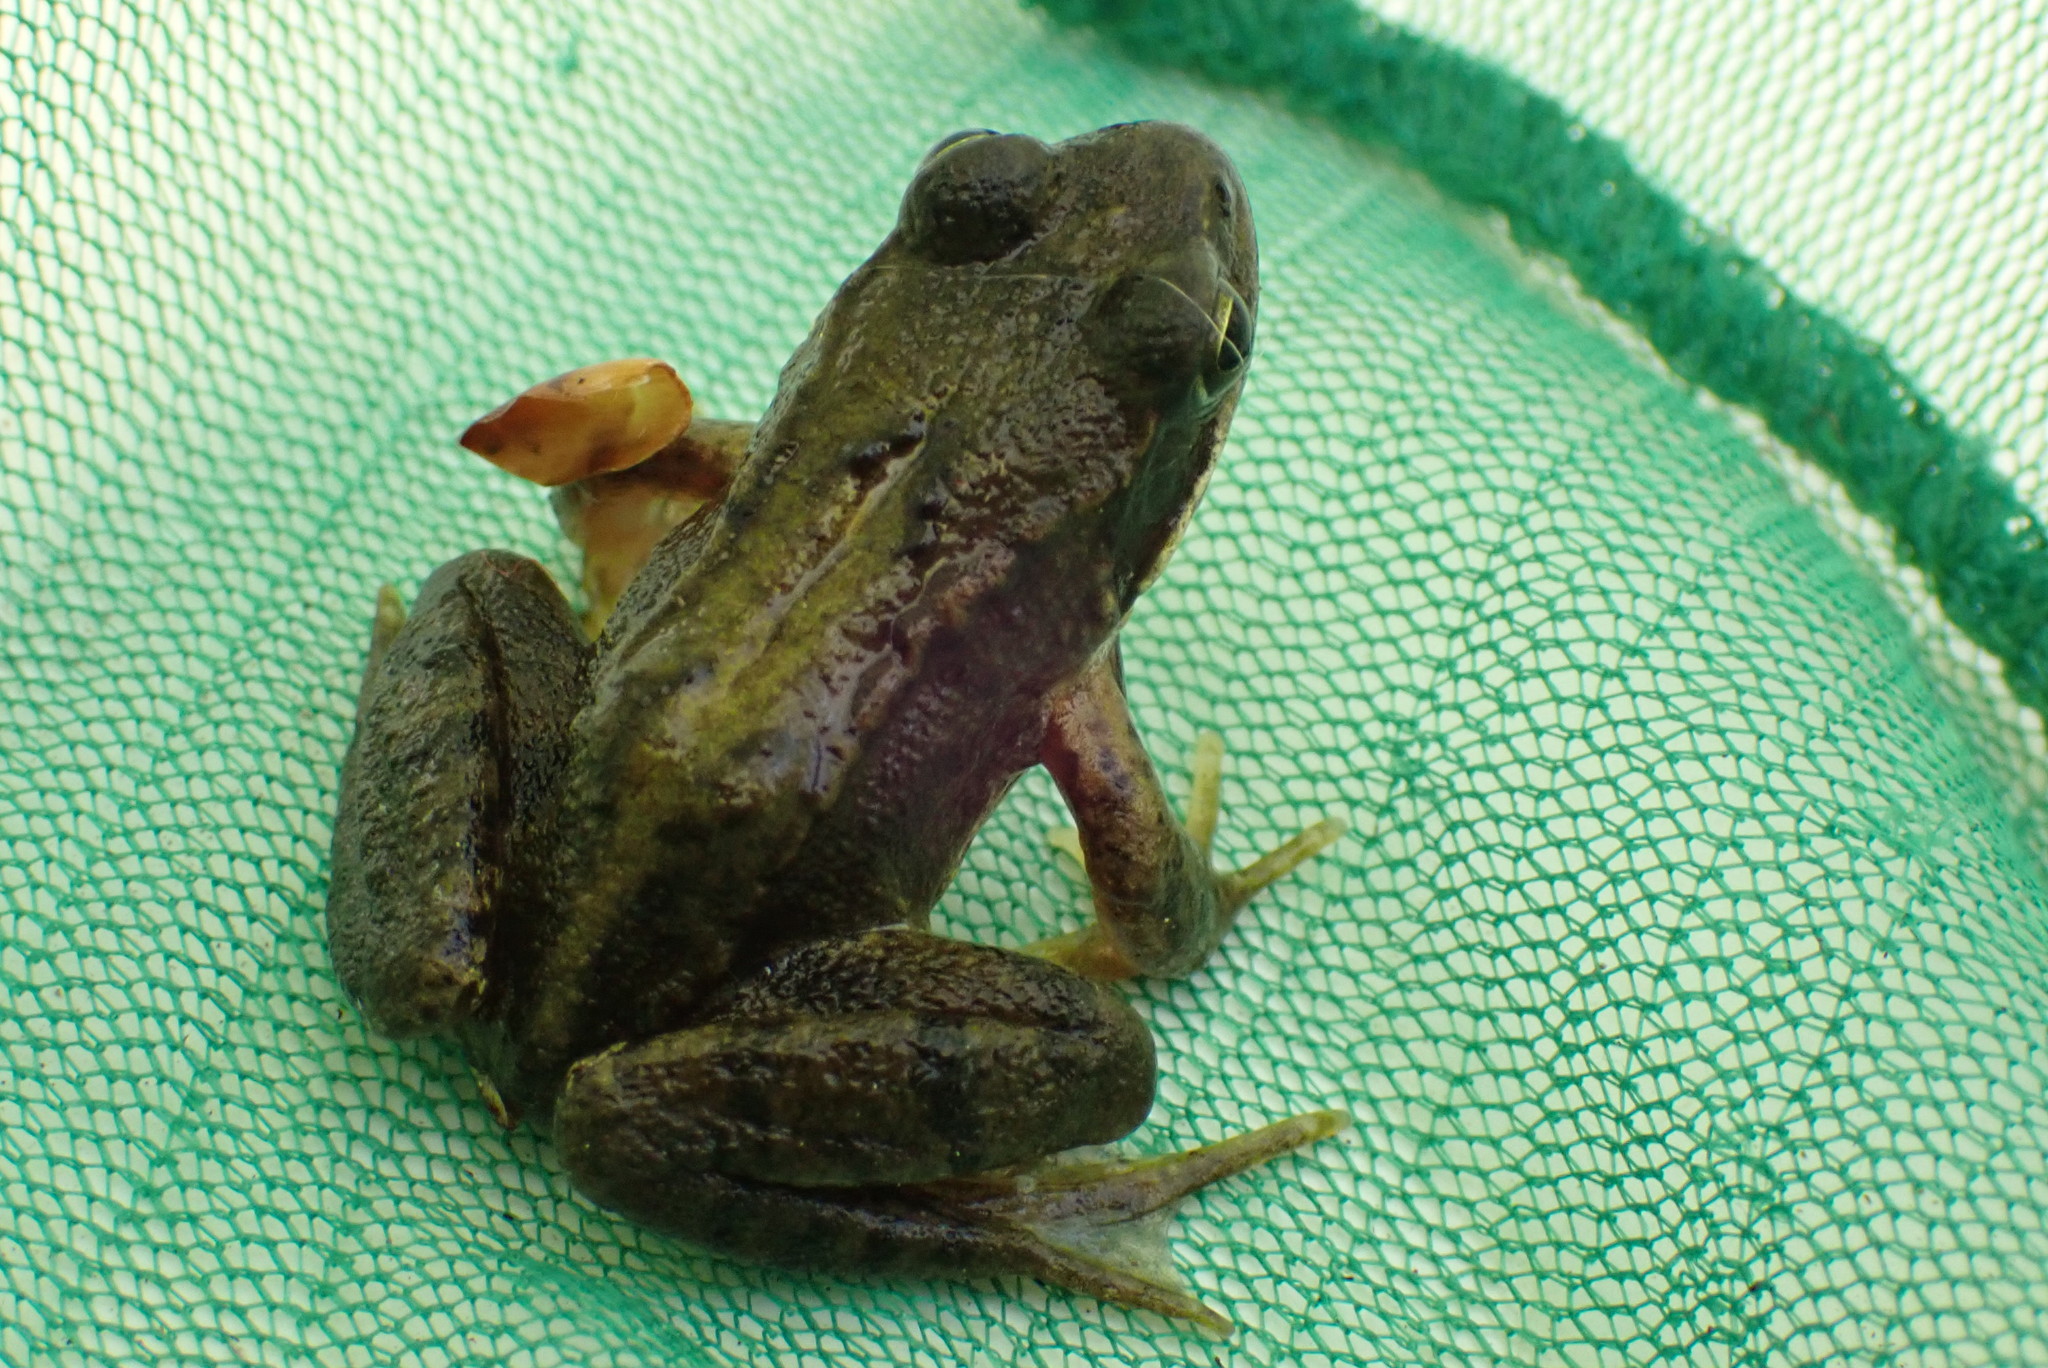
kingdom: Animalia
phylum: Chordata
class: Amphibia
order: Anura
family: Ranidae
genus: Rana
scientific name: Rana temporaria
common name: Common frog
